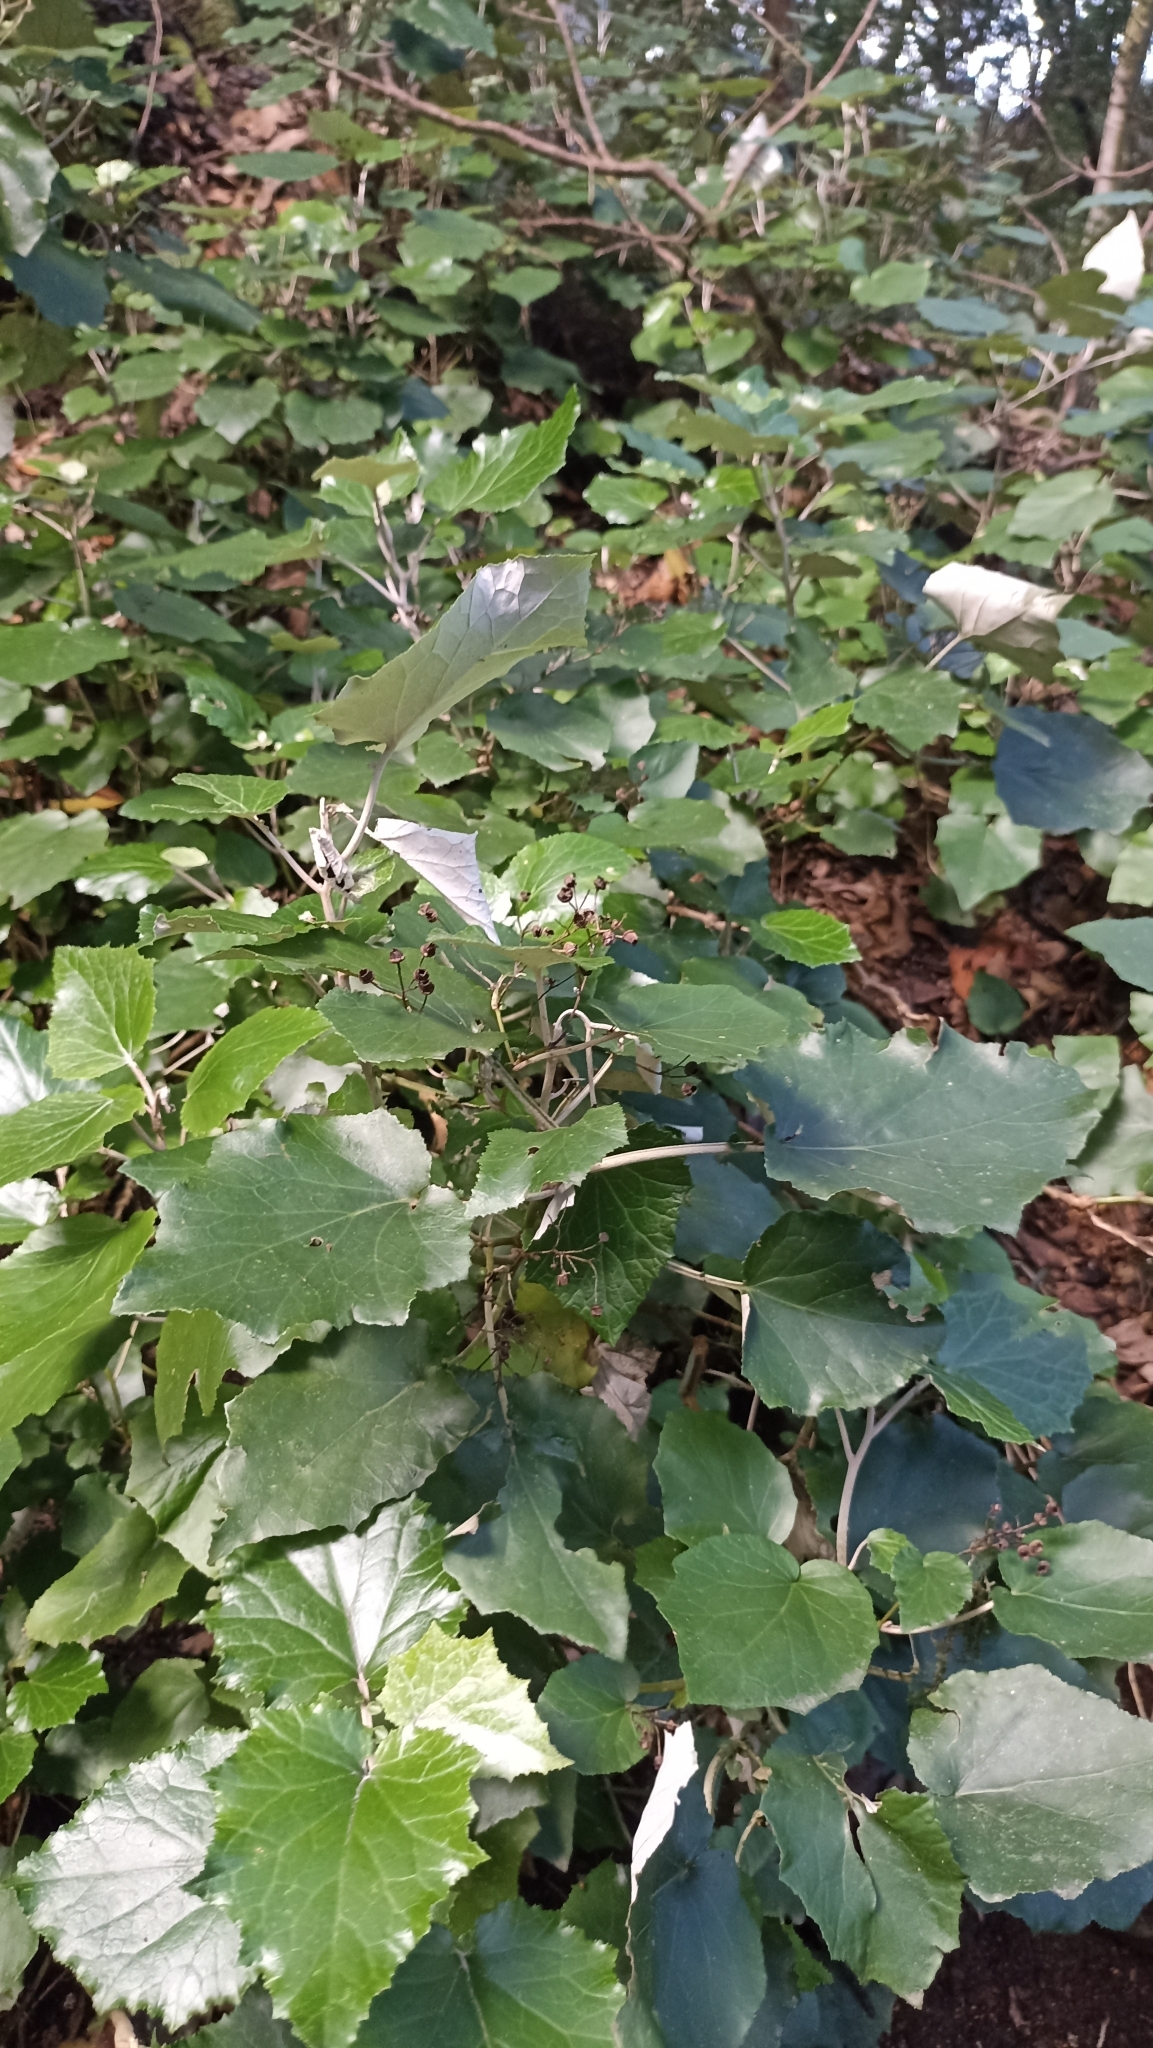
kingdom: Plantae
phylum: Tracheophyta
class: Magnoliopsida
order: Asterales
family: Asteraceae
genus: Pericallis
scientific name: Pericallis appendiculata
